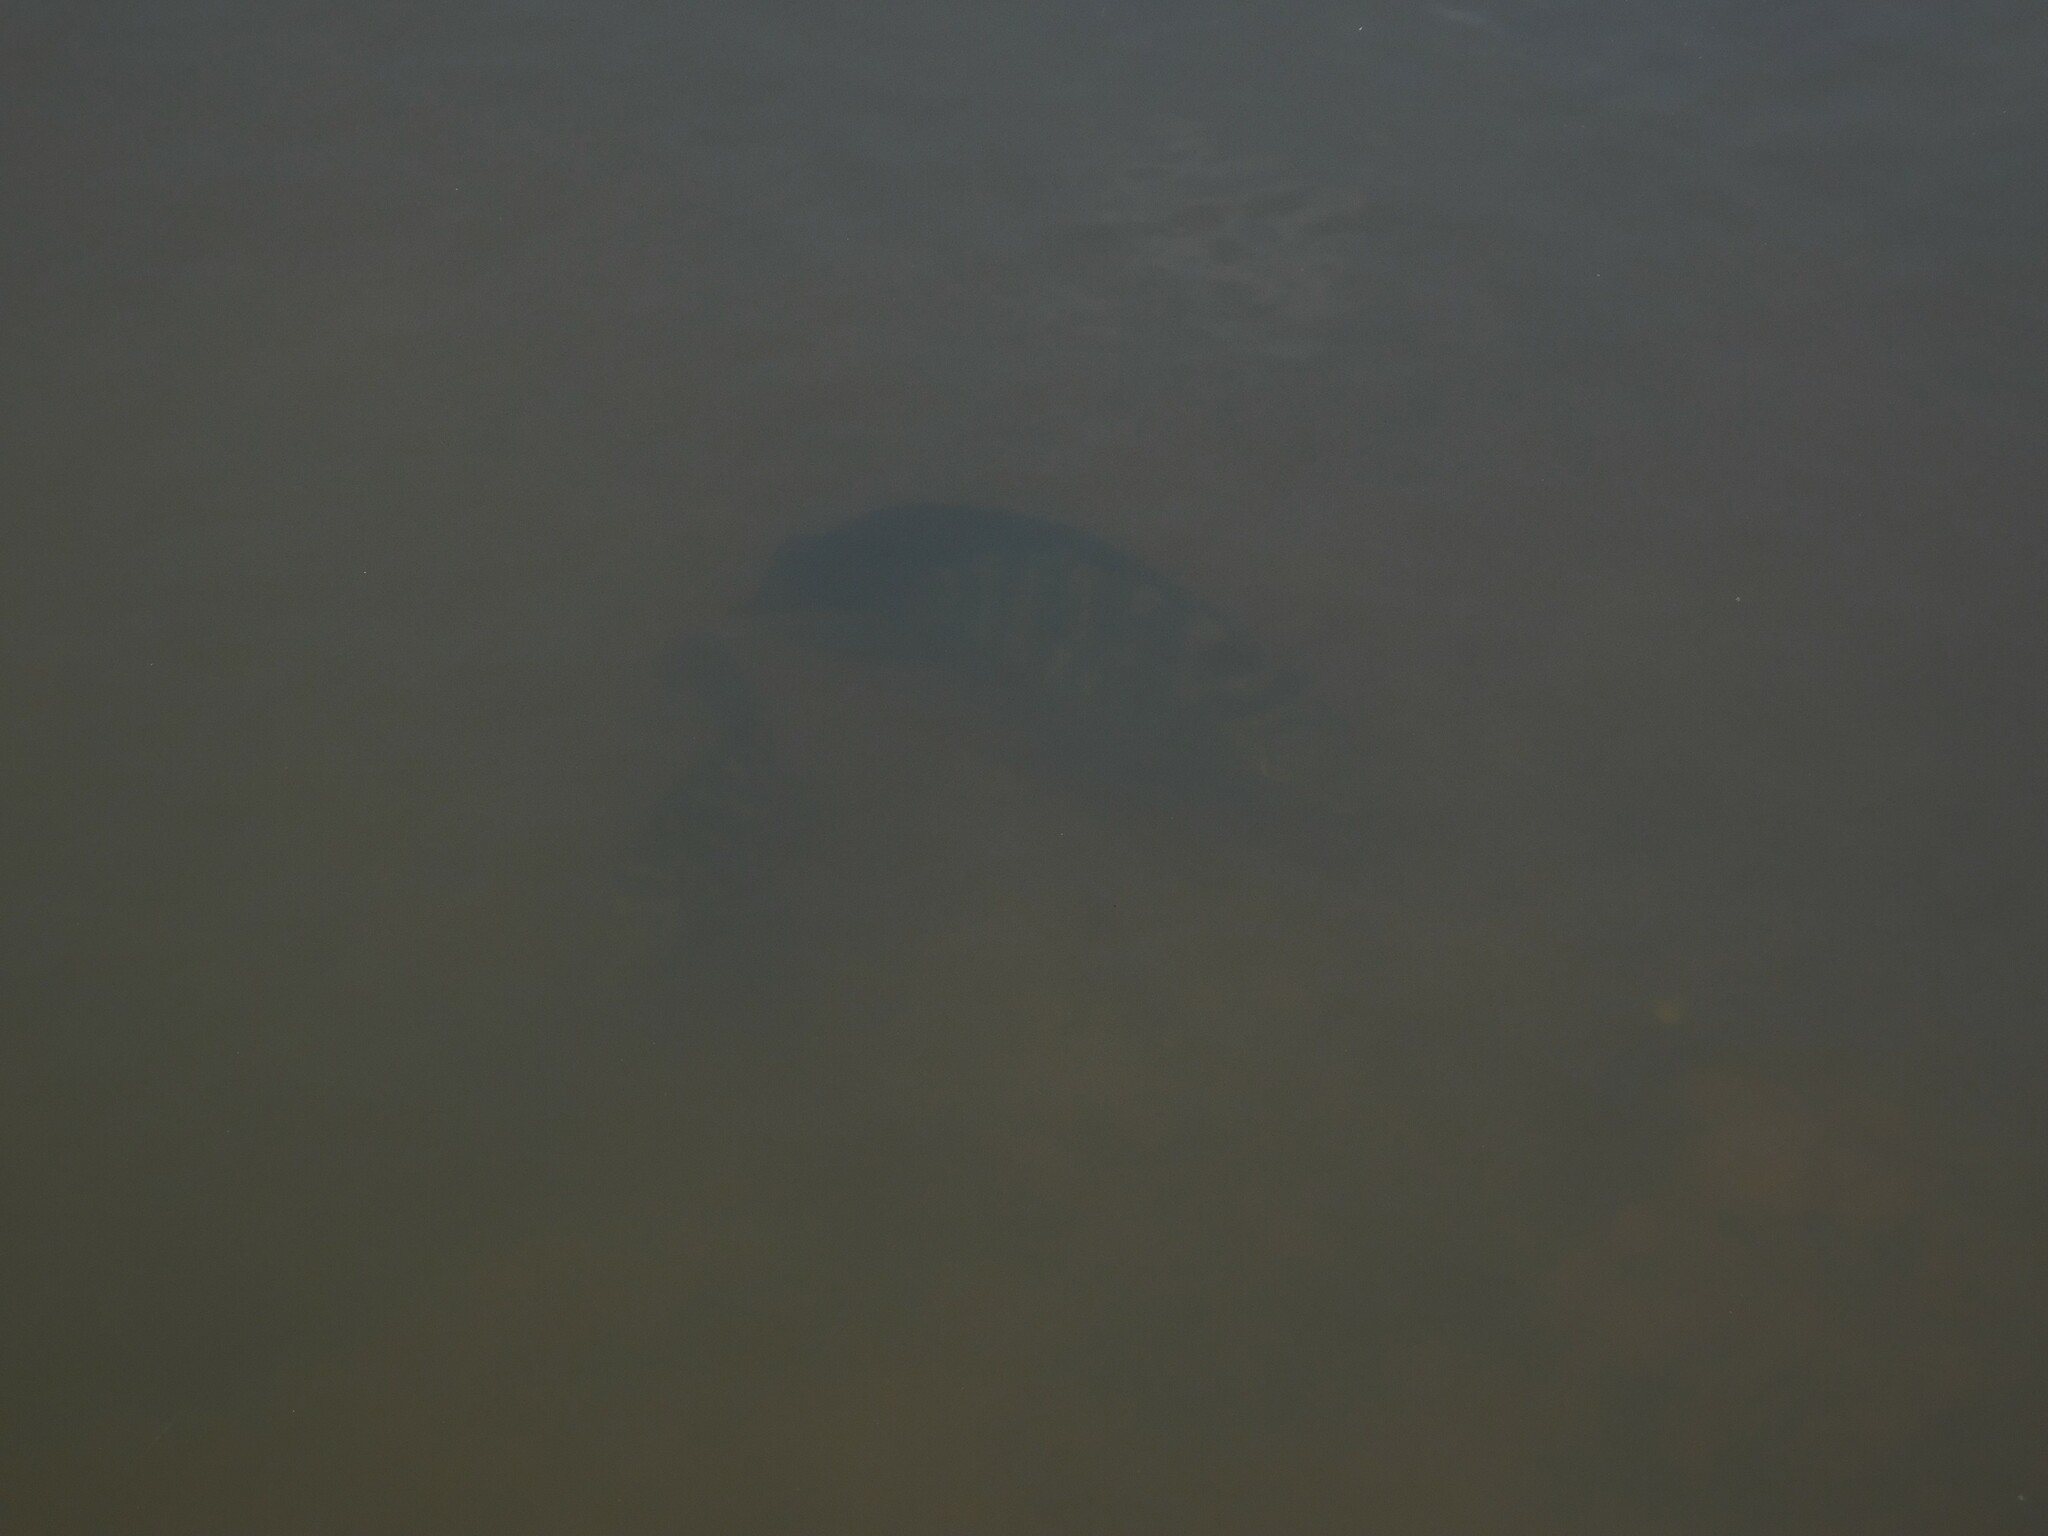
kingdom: Animalia
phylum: Chordata
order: Perciformes
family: Cichlidae
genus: Australoheros
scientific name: Australoheros facetus
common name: Chameleon cichlid
